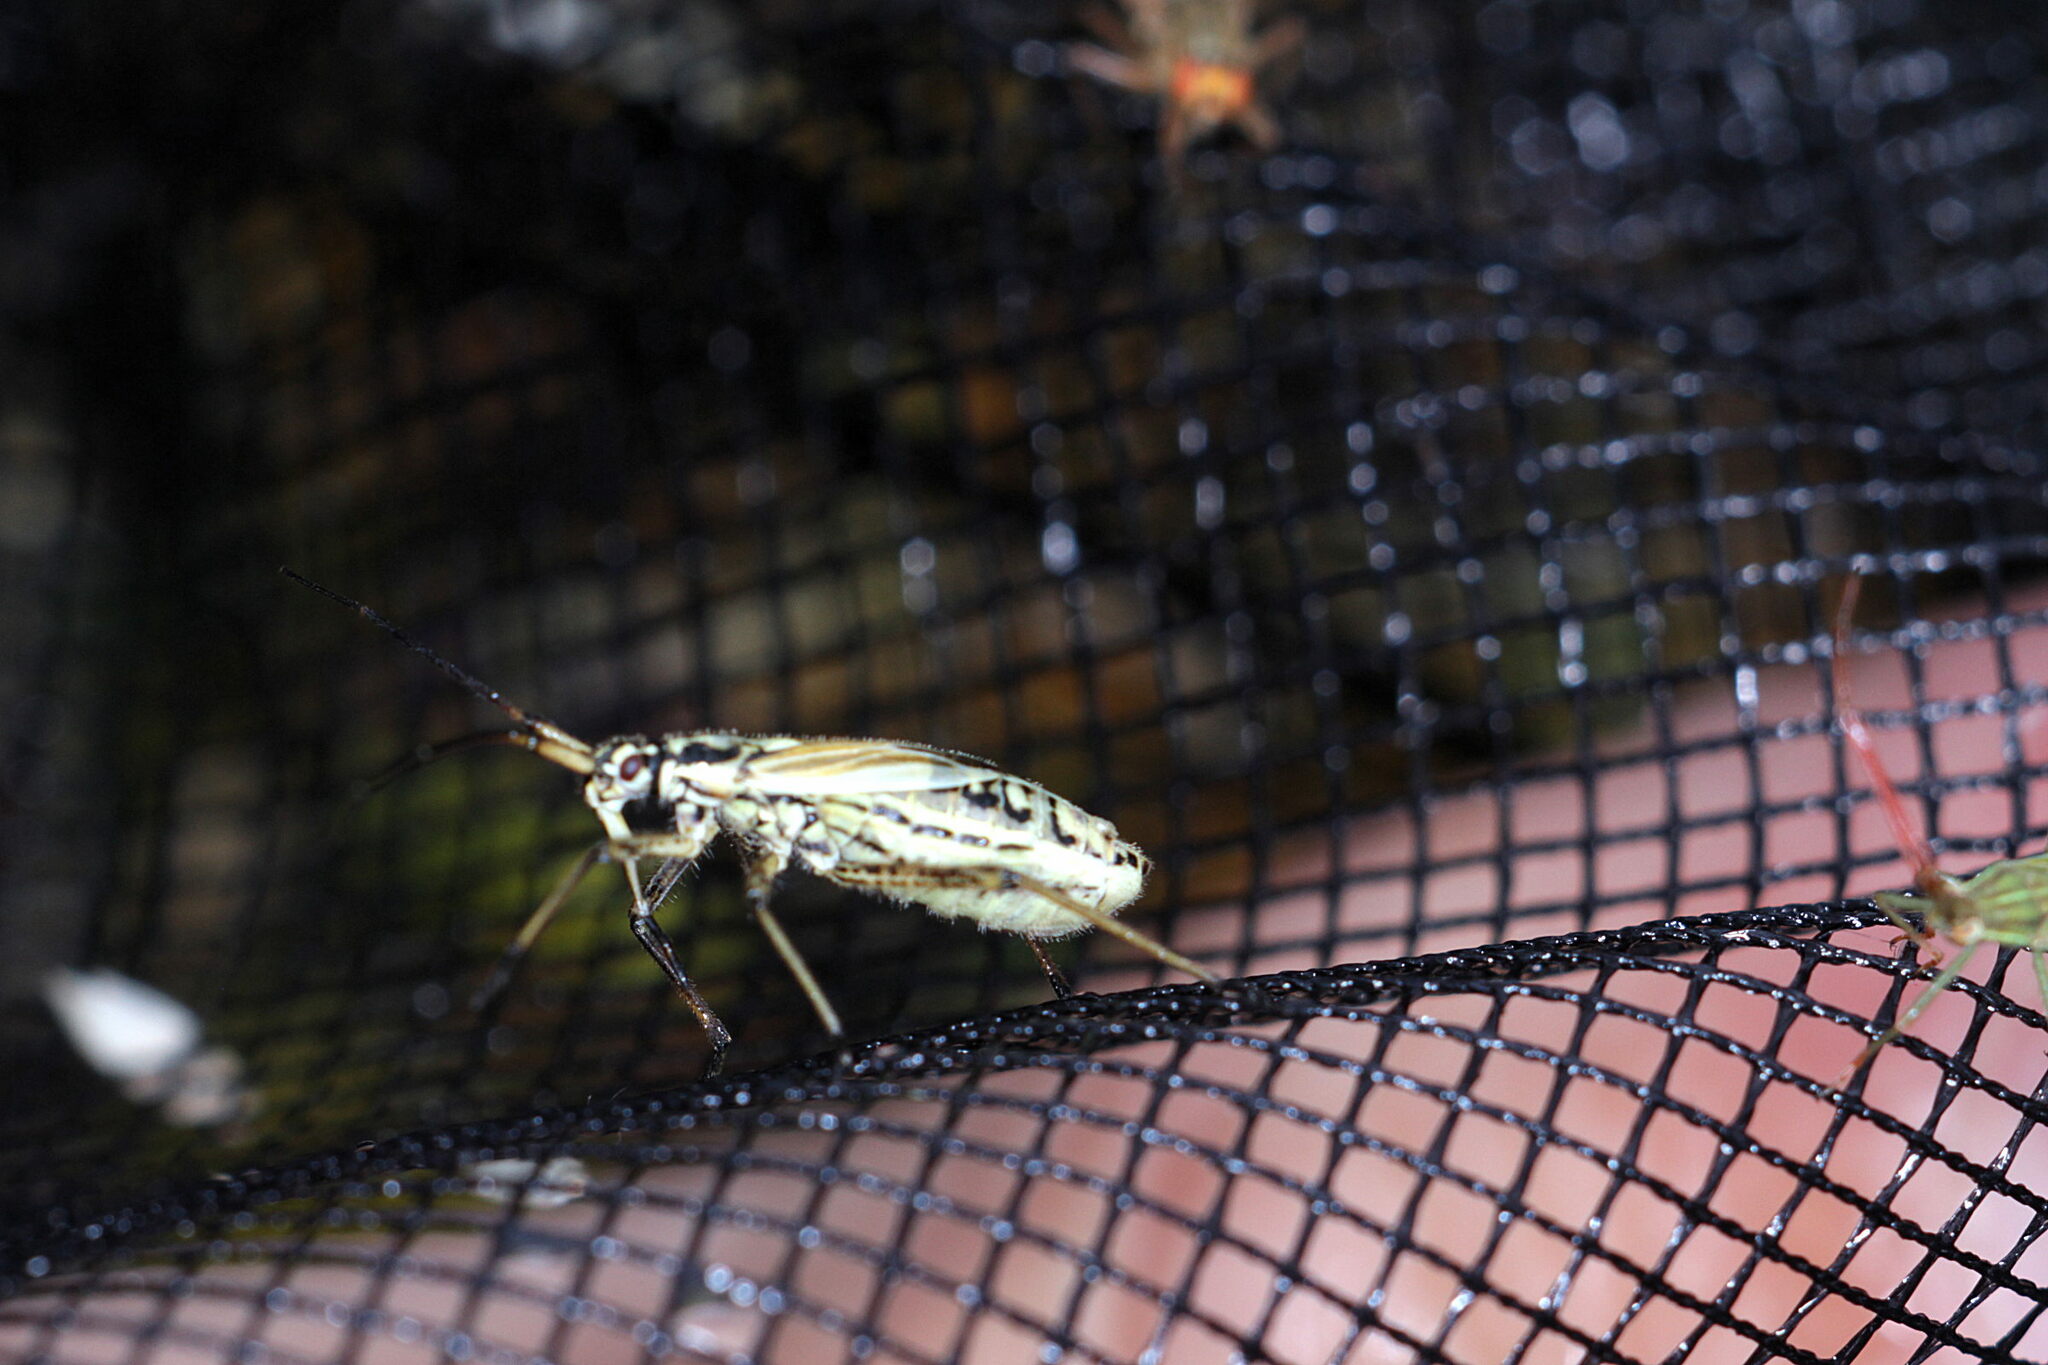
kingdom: Animalia
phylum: Arthropoda
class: Insecta
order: Hemiptera
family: Miridae
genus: Leptopterna
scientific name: Leptopterna dolabrata
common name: Meadow plant bug
